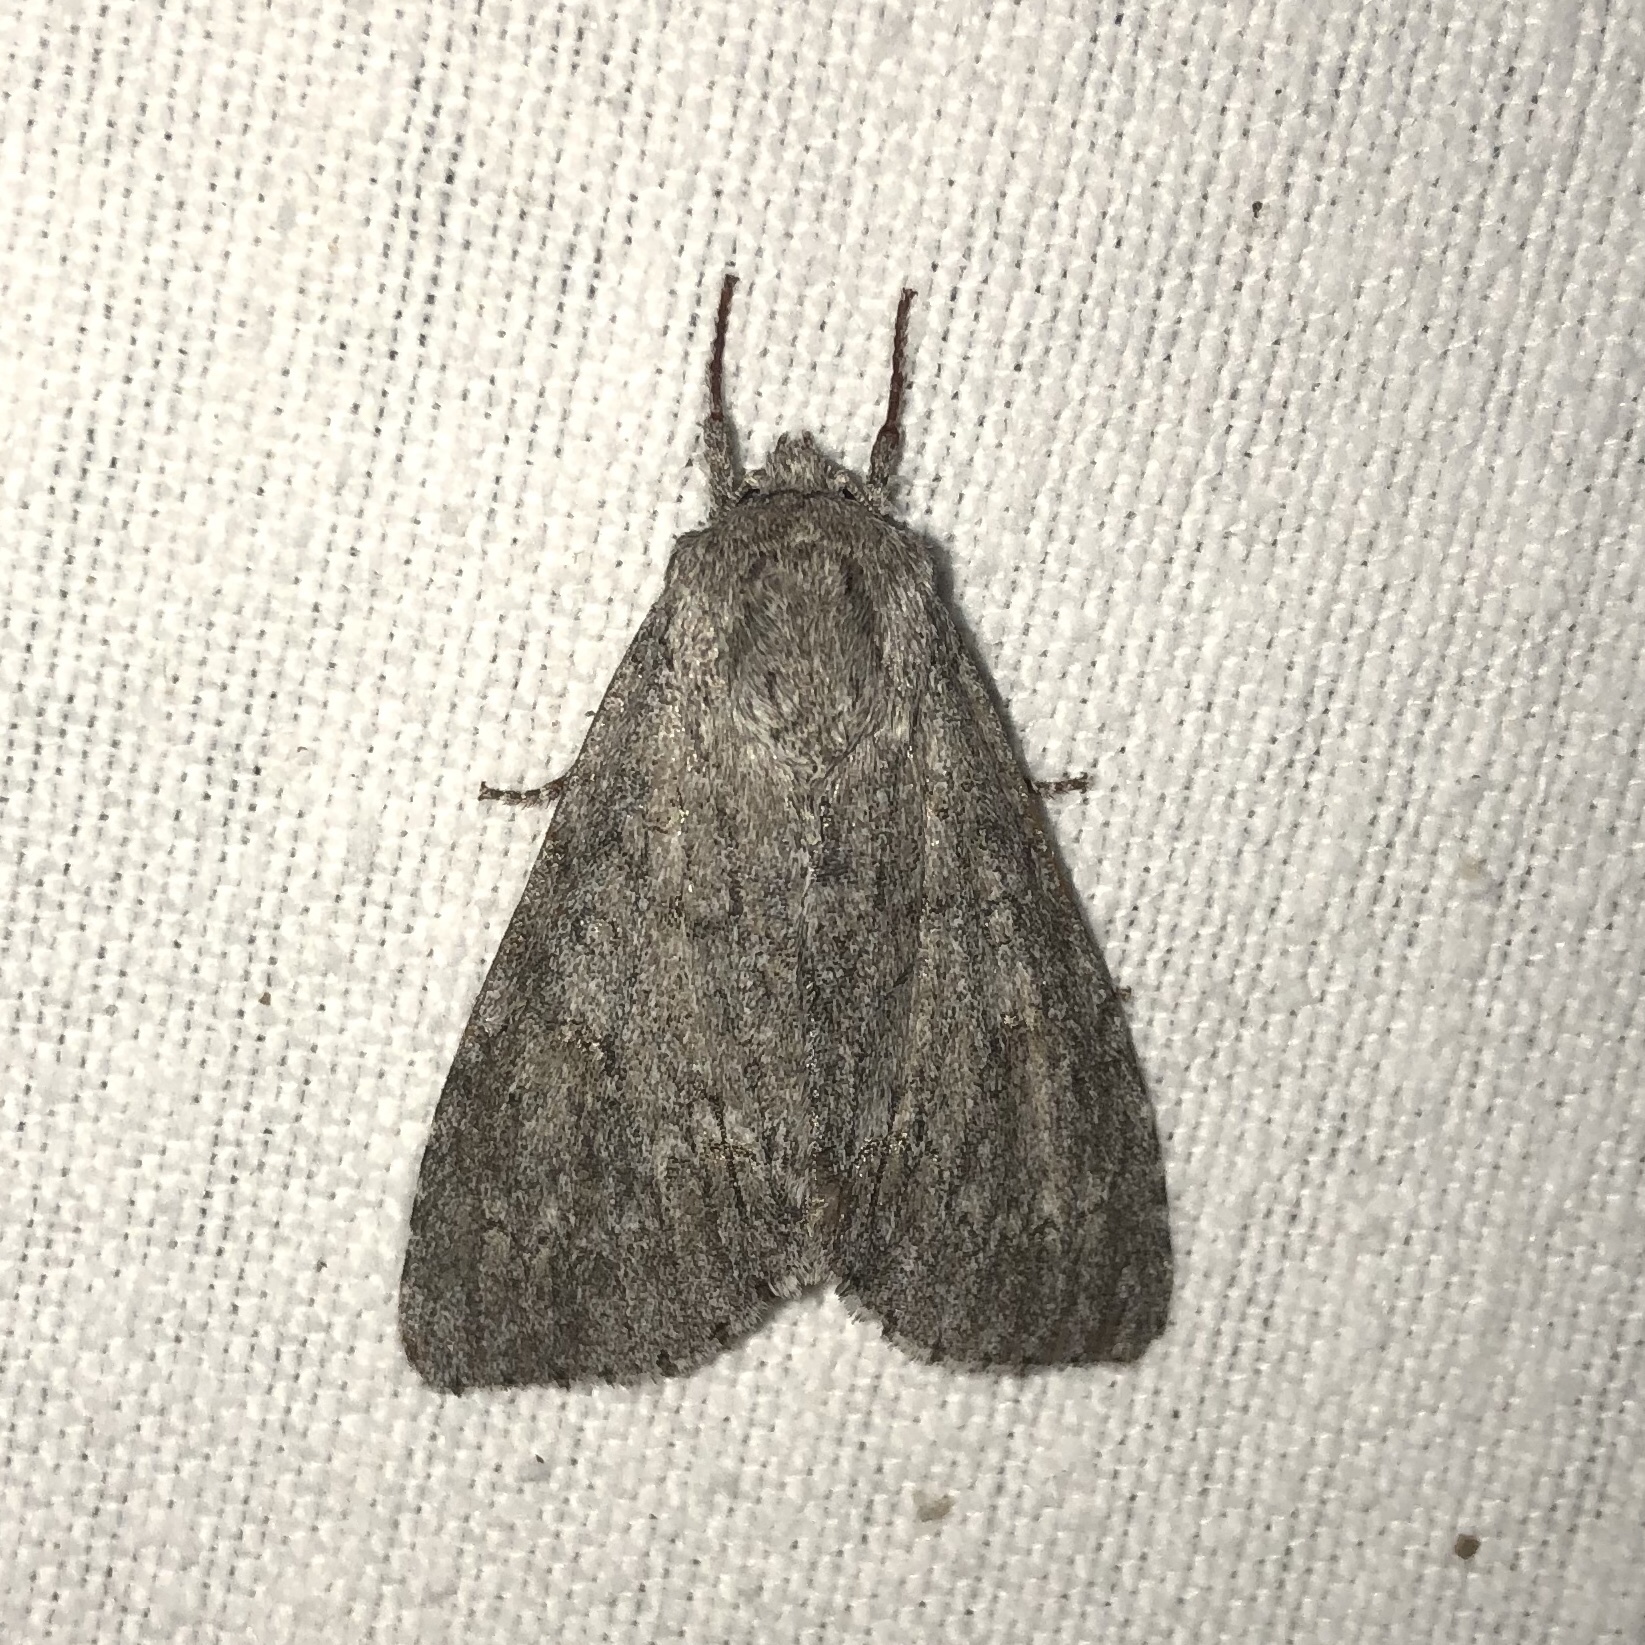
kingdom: Animalia
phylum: Arthropoda
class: Insecta
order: Lepidoptera
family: Noctuidae
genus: Acronicta
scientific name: Acronicta americana
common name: American dagger
